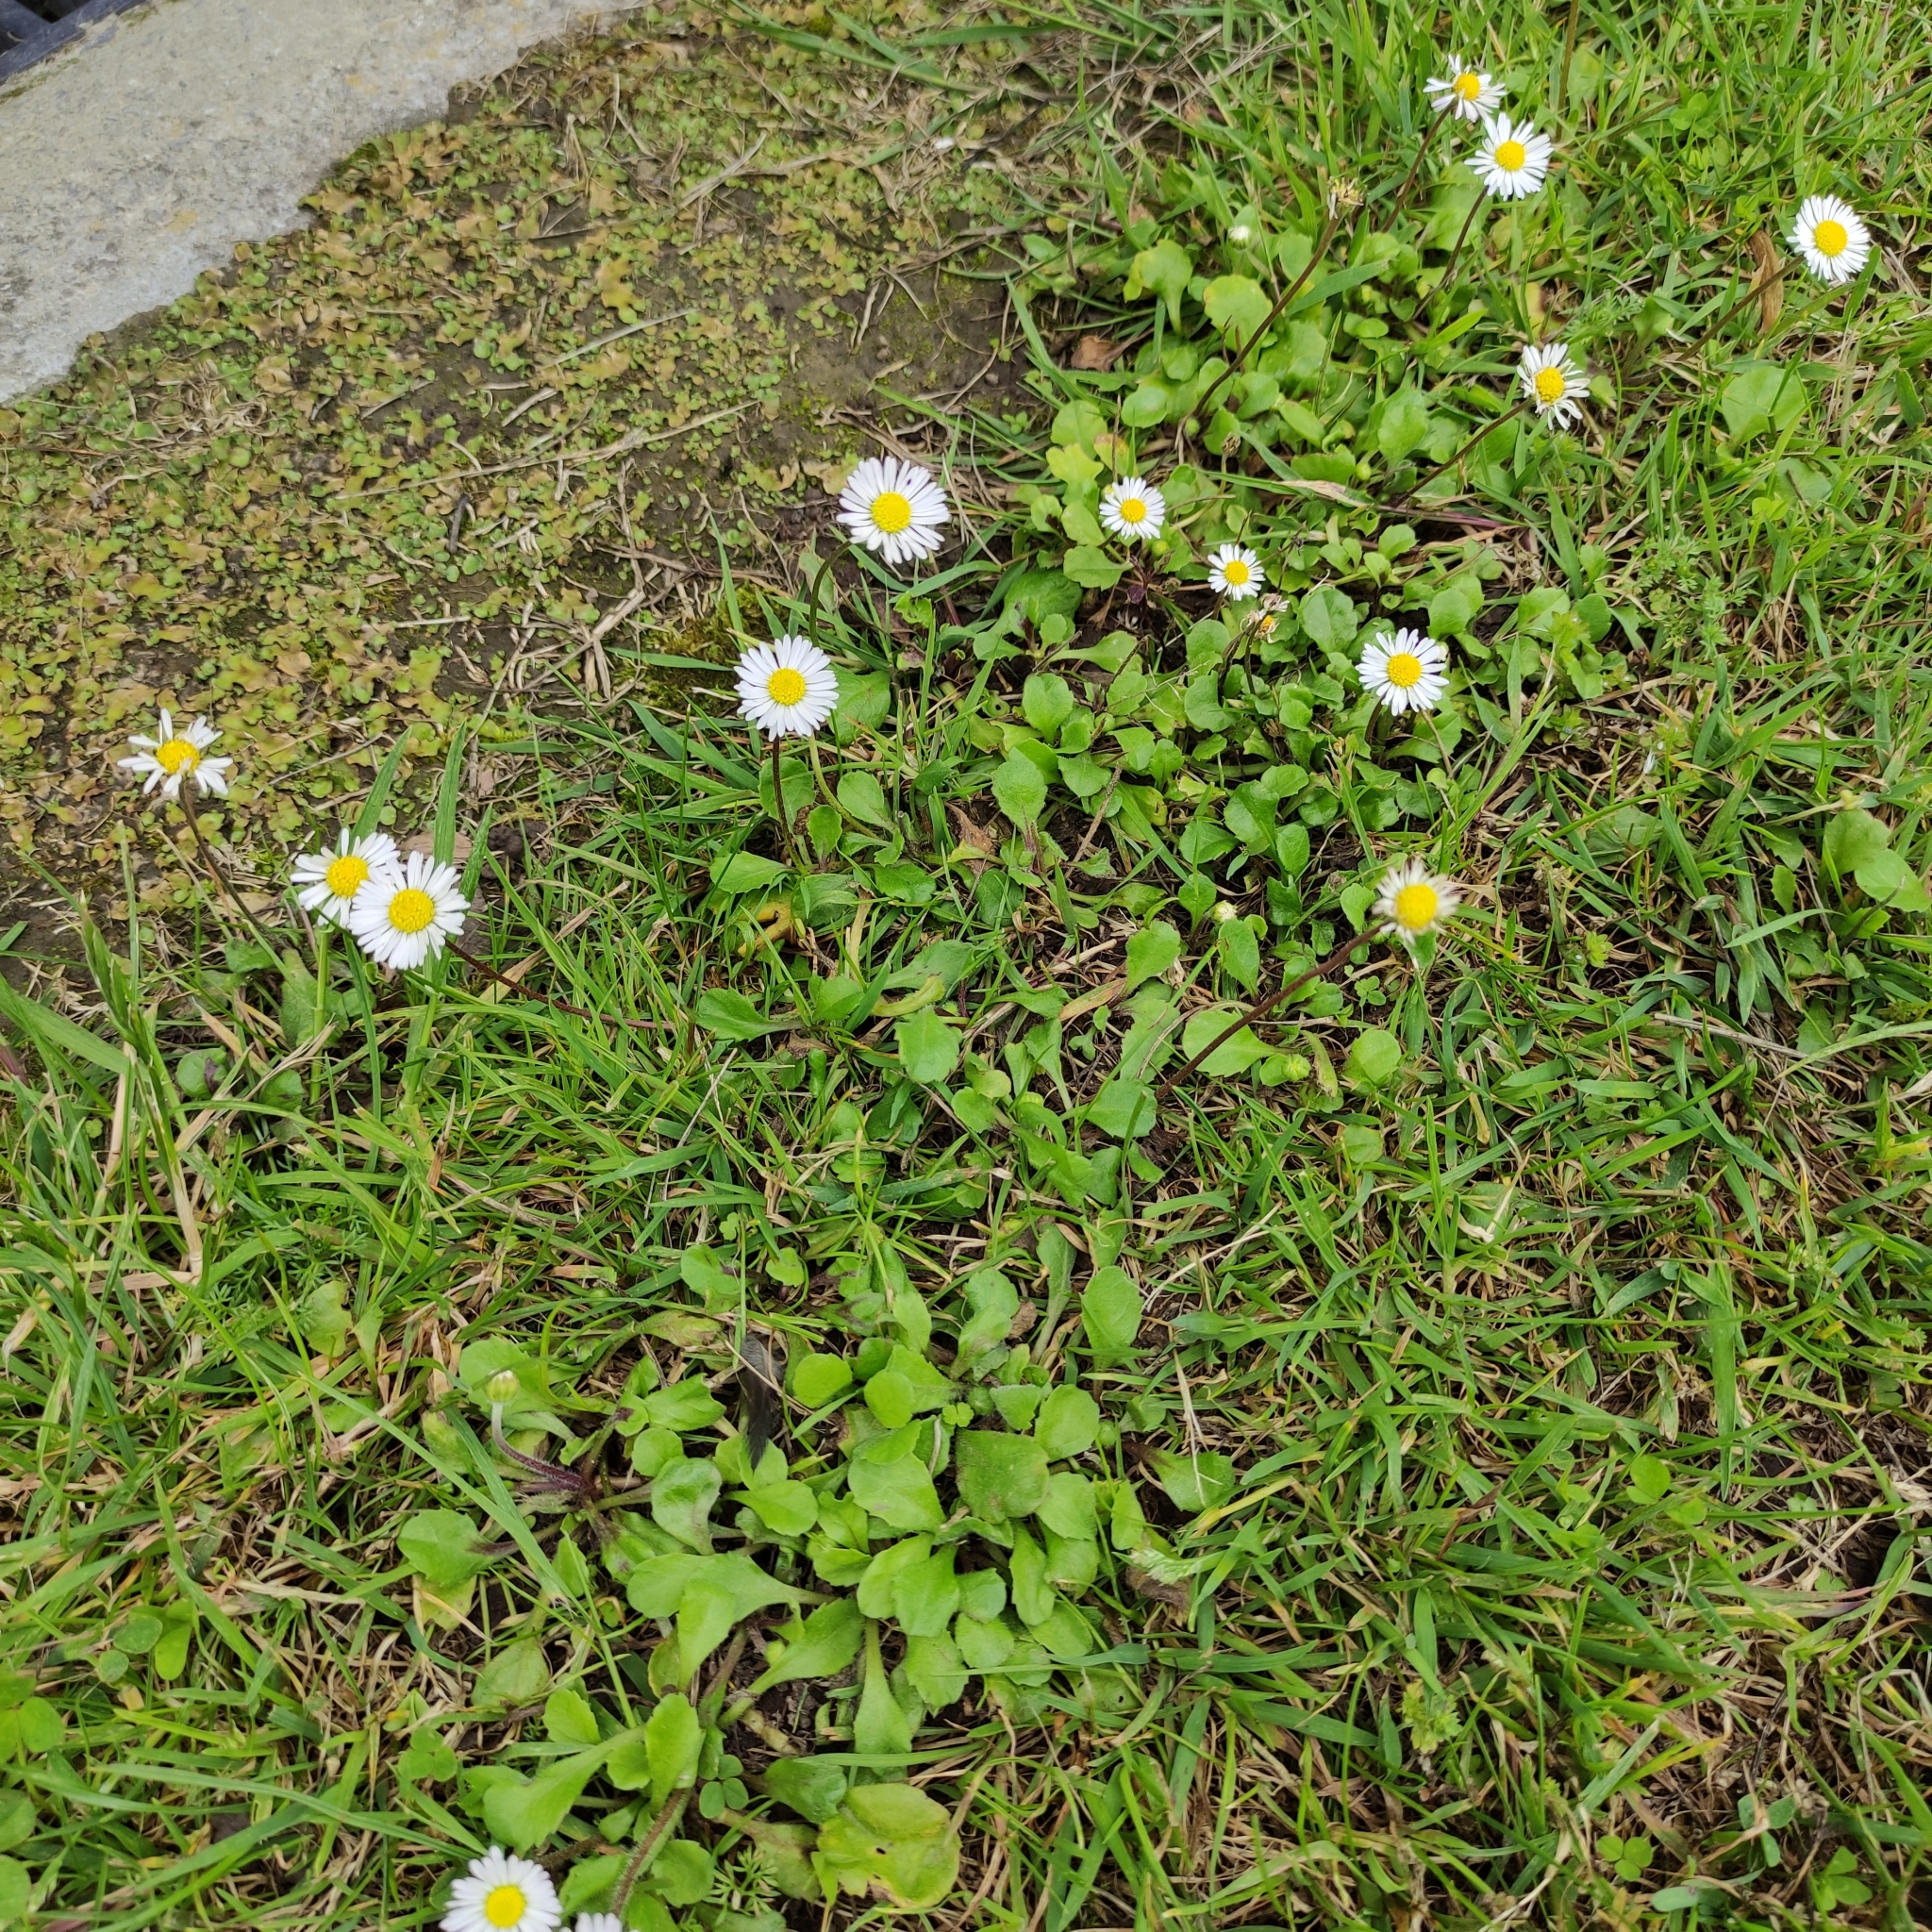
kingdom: Plantae
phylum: Tracheophyta
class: Magnoliopsida
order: Asterales
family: Asteraceae
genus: Bellis
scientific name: Bellis perennis
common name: Lawndaisy
